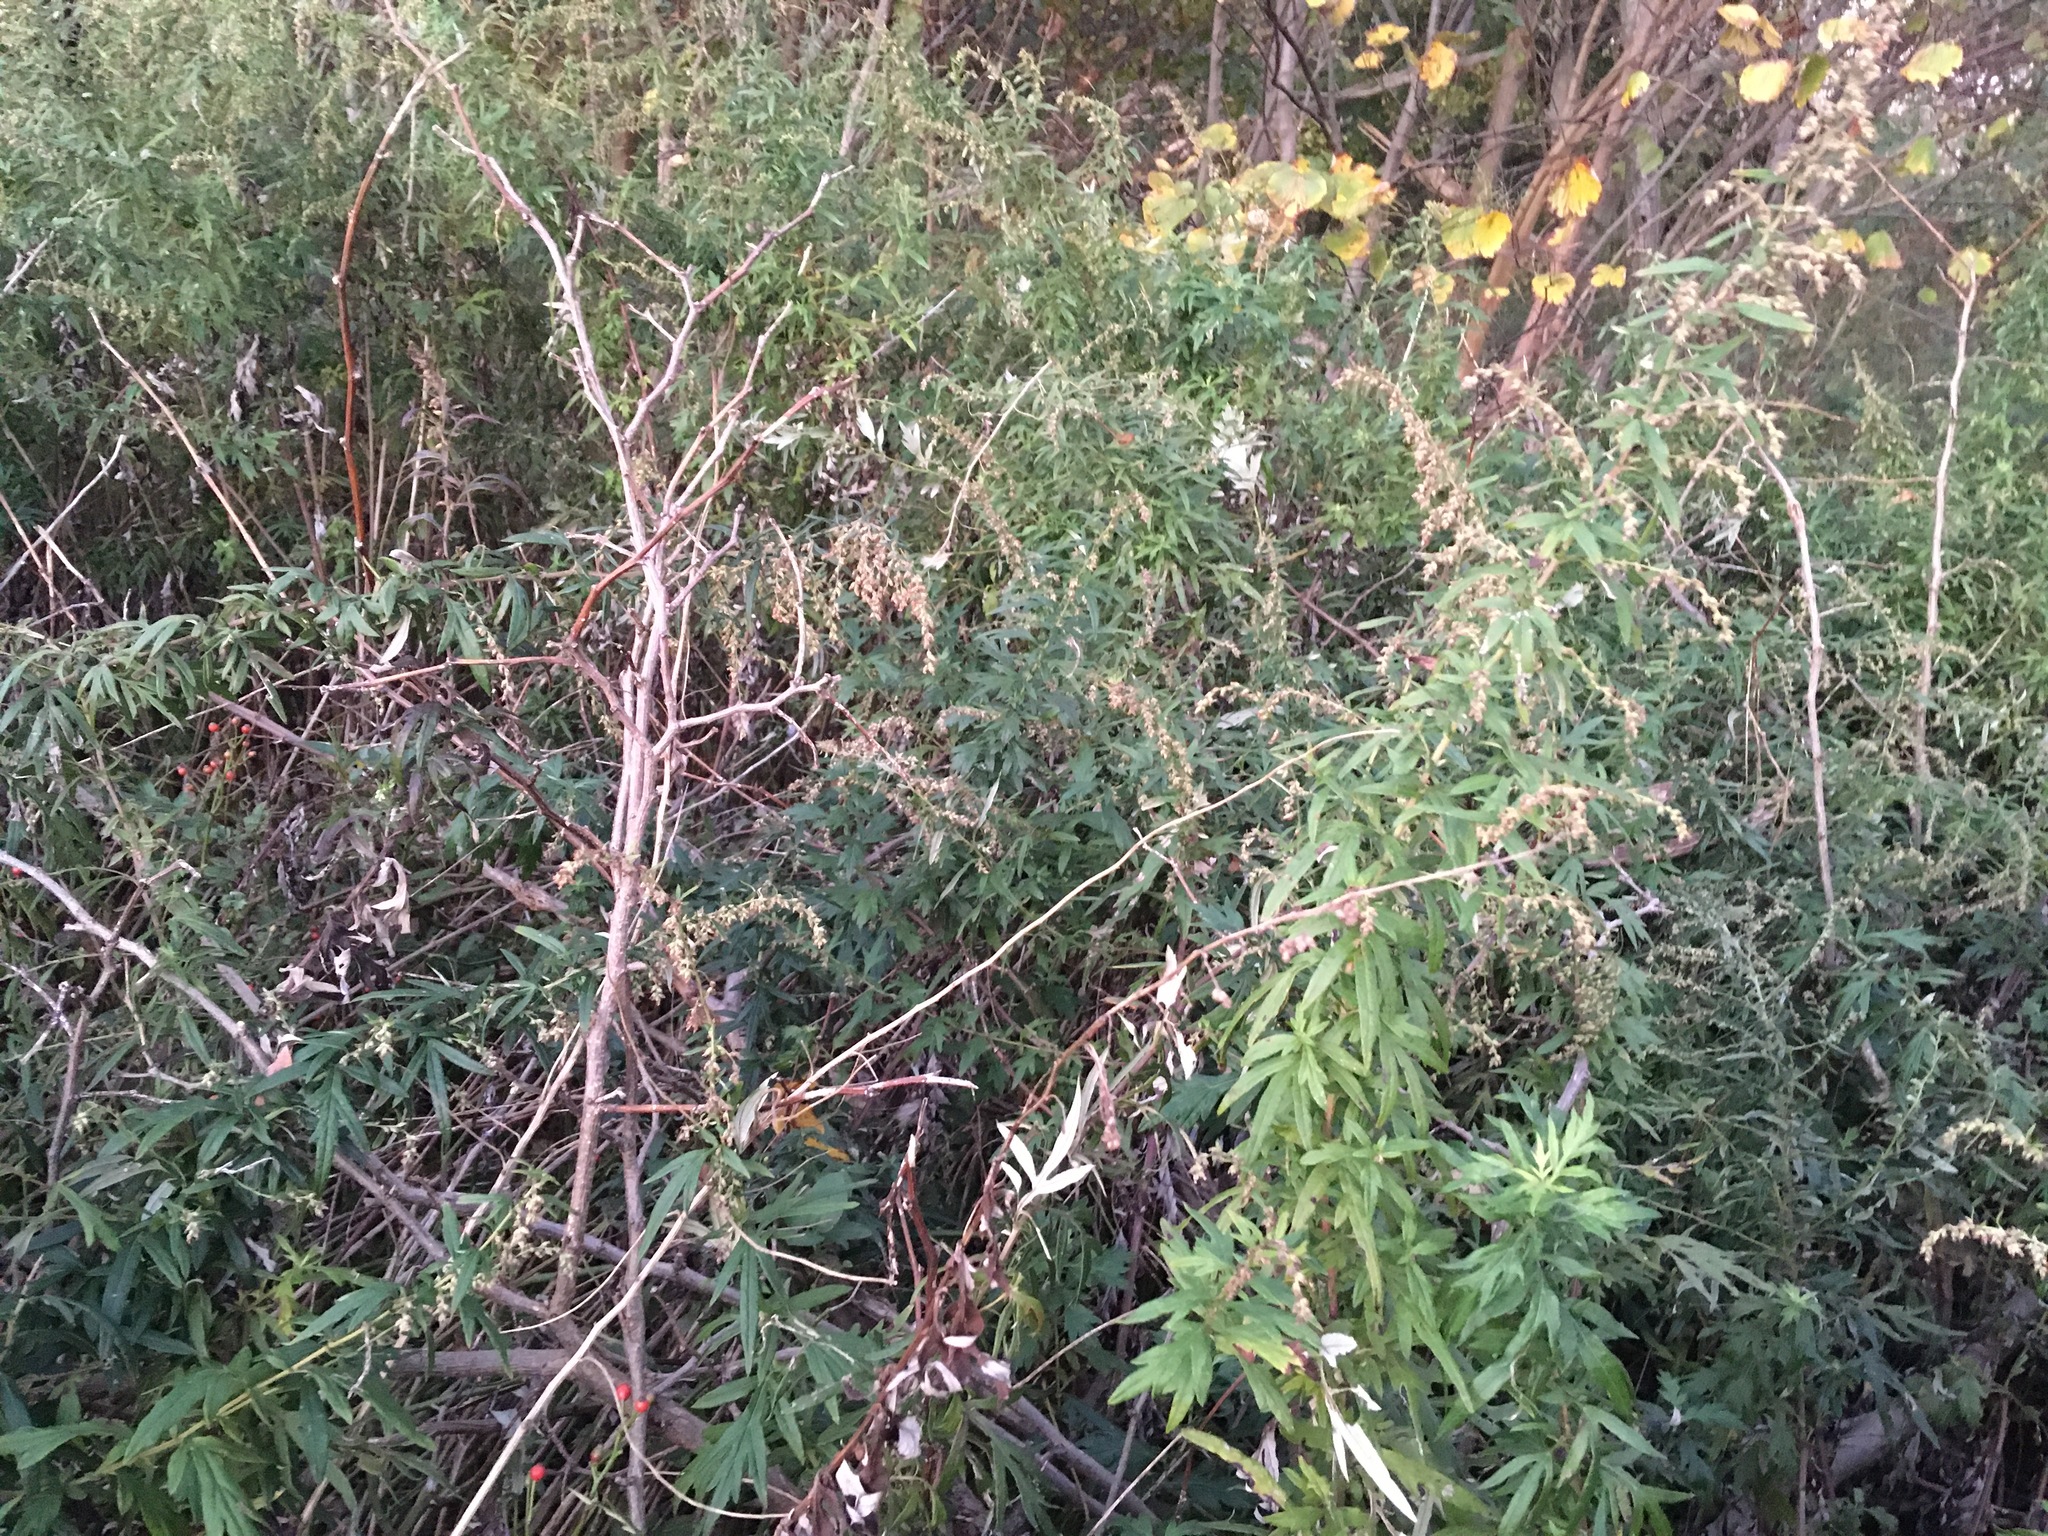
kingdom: Plantae
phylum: Tracheophyta
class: Magnoliopsida
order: Asterales
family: Asteraceae
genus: Artemisia
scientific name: Artemisia vulgaris
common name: Mugwort
